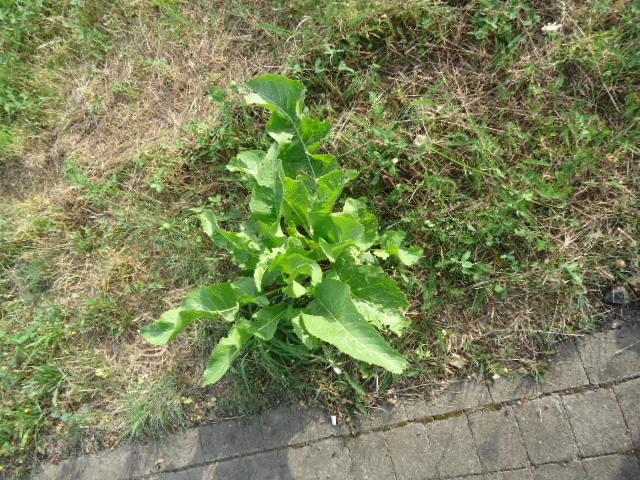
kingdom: Plantae
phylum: Tracheophyta
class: Magnoliopsida
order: Brassicales
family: Brassicaceae
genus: Armoracia
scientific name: Armoracia rusticana
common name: Horseradish
